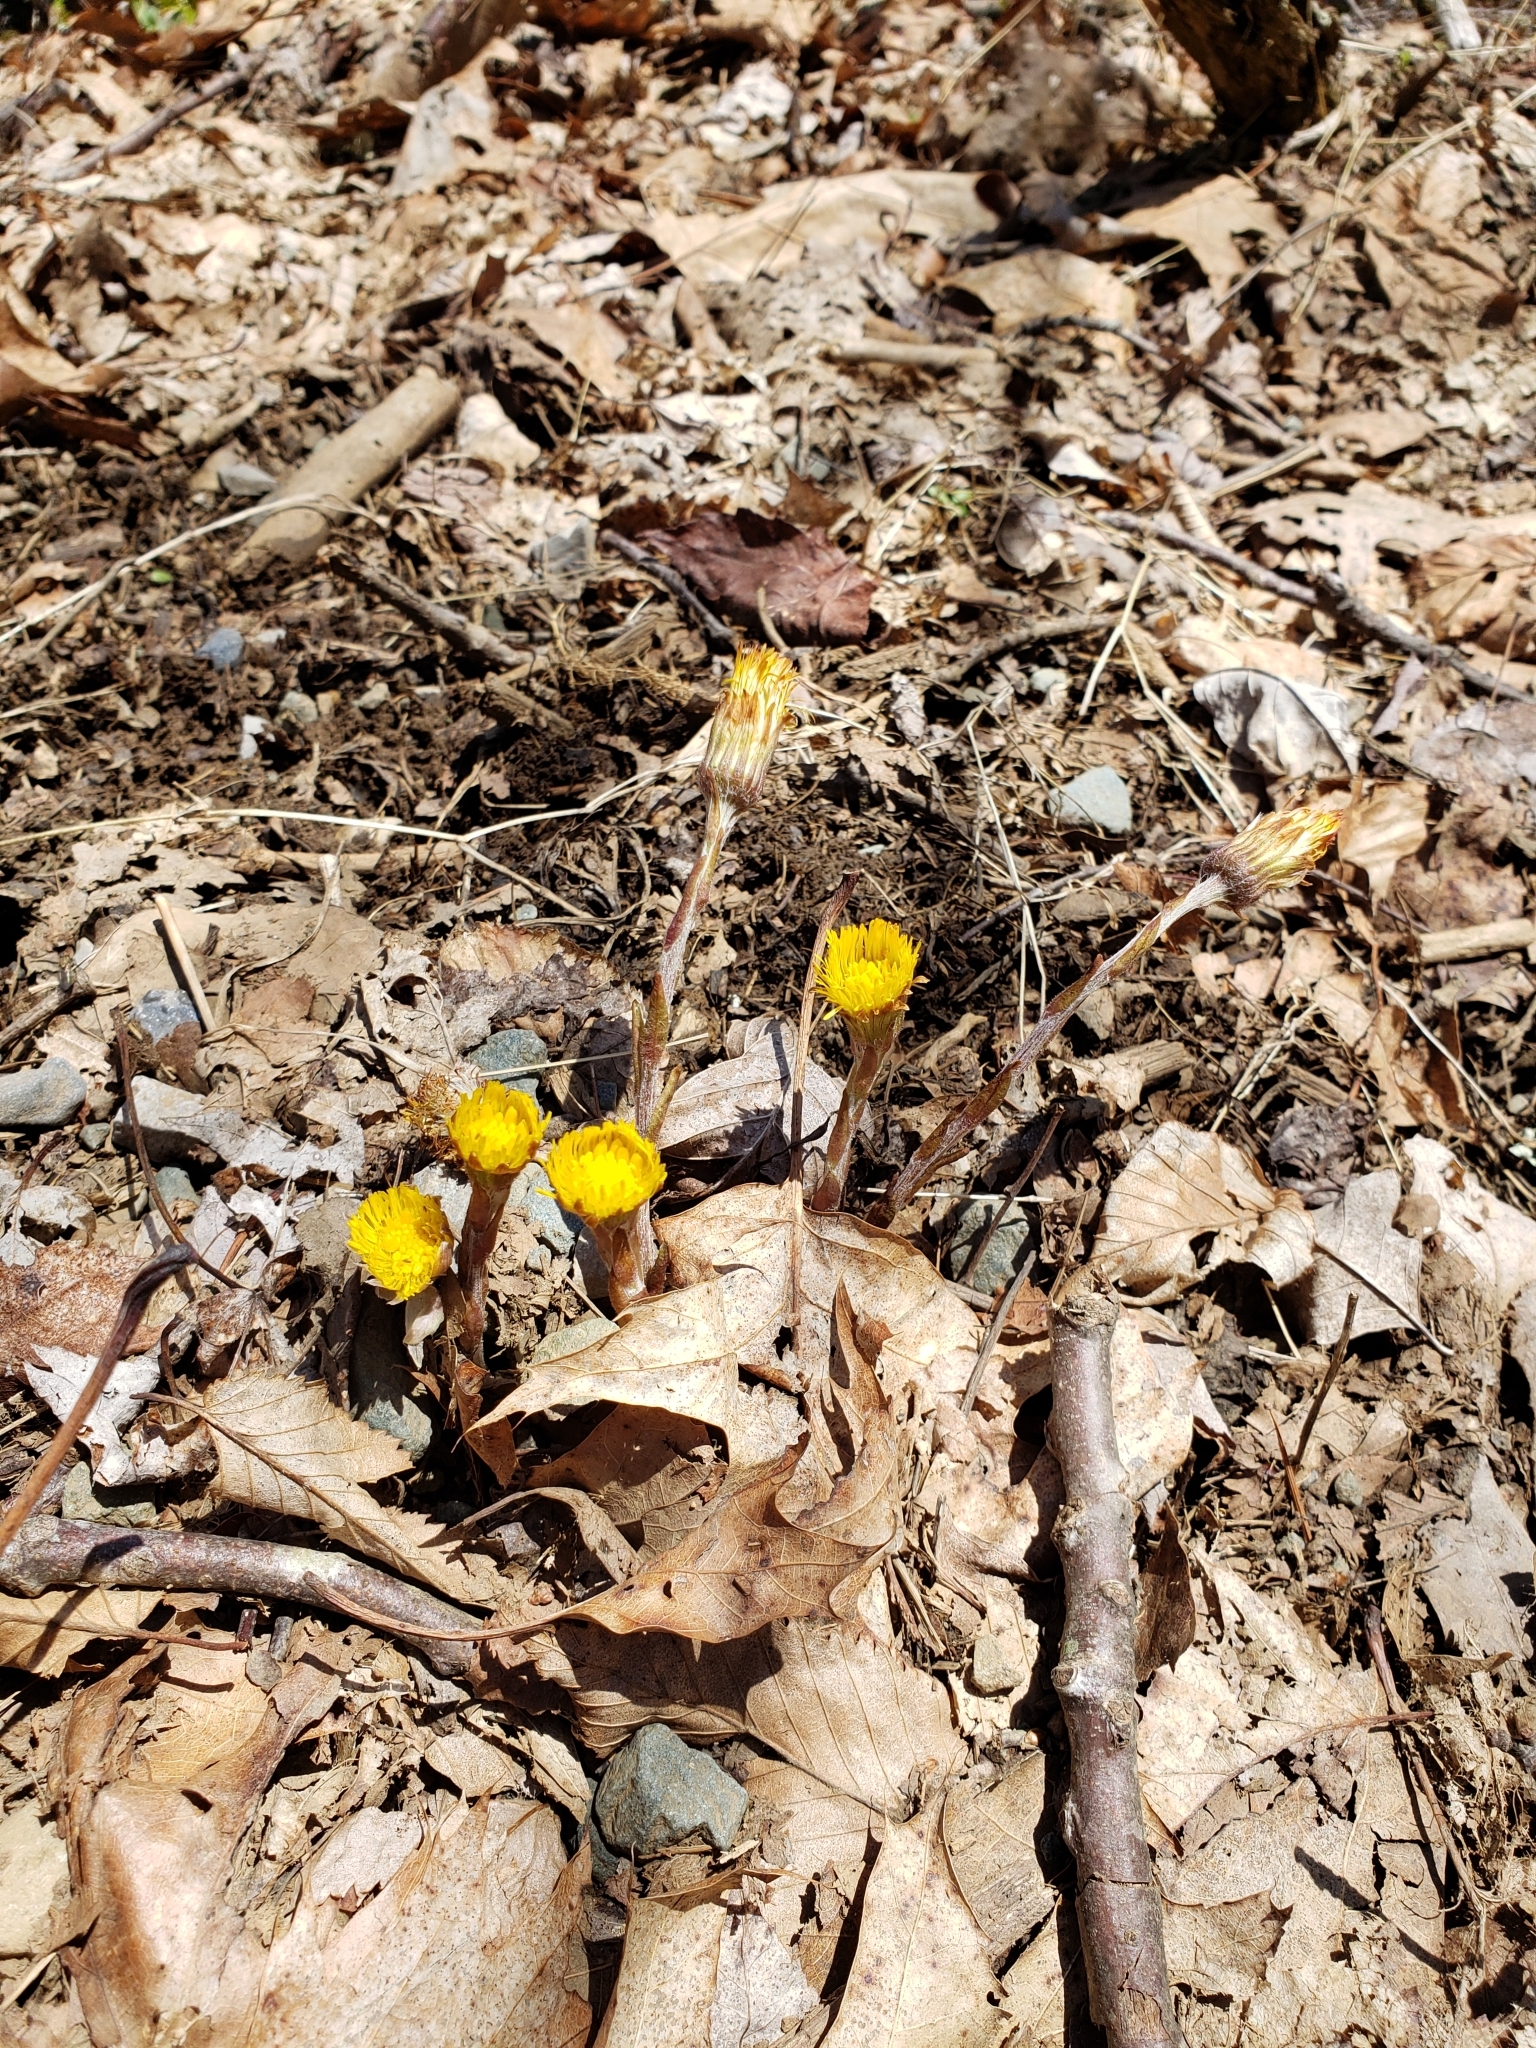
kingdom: Plantae
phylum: Tracheophyta
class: Magnoliopsida
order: Asterales
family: Asteraceae
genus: Tussilago
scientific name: Tussilago farfara
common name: Coltsfoot
